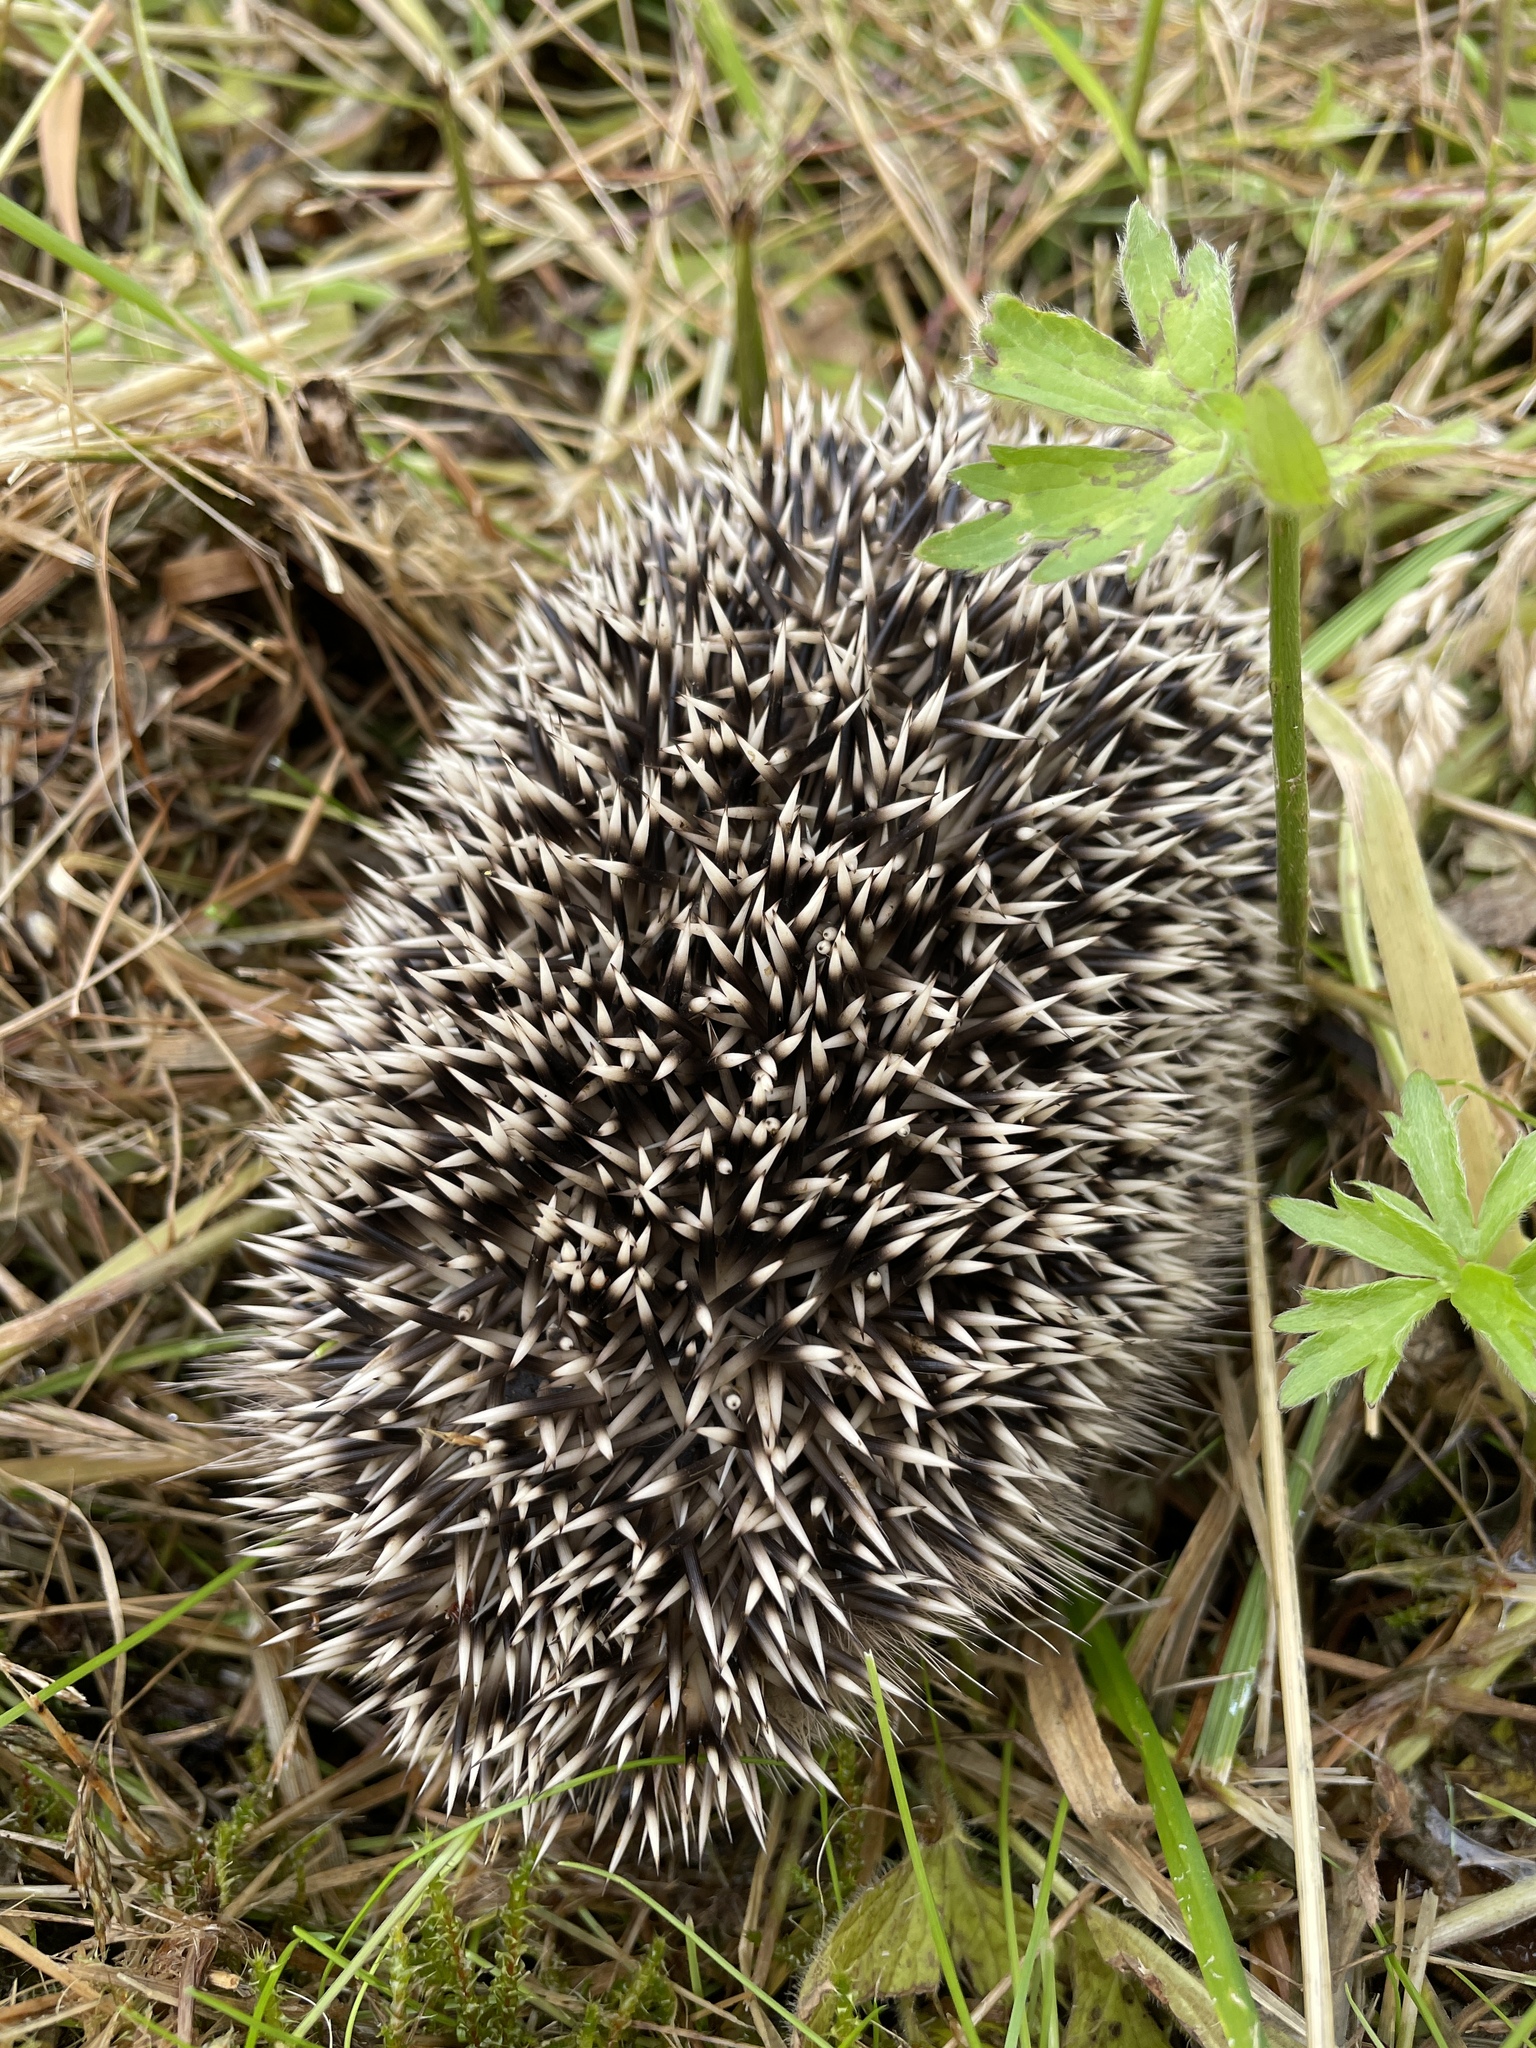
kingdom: Animalia
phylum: Chordata
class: Mammalia
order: Erinaceomorpha
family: Erinaceidae
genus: Erinaceus
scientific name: Erinaceus europaeus
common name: West european hedgehog
